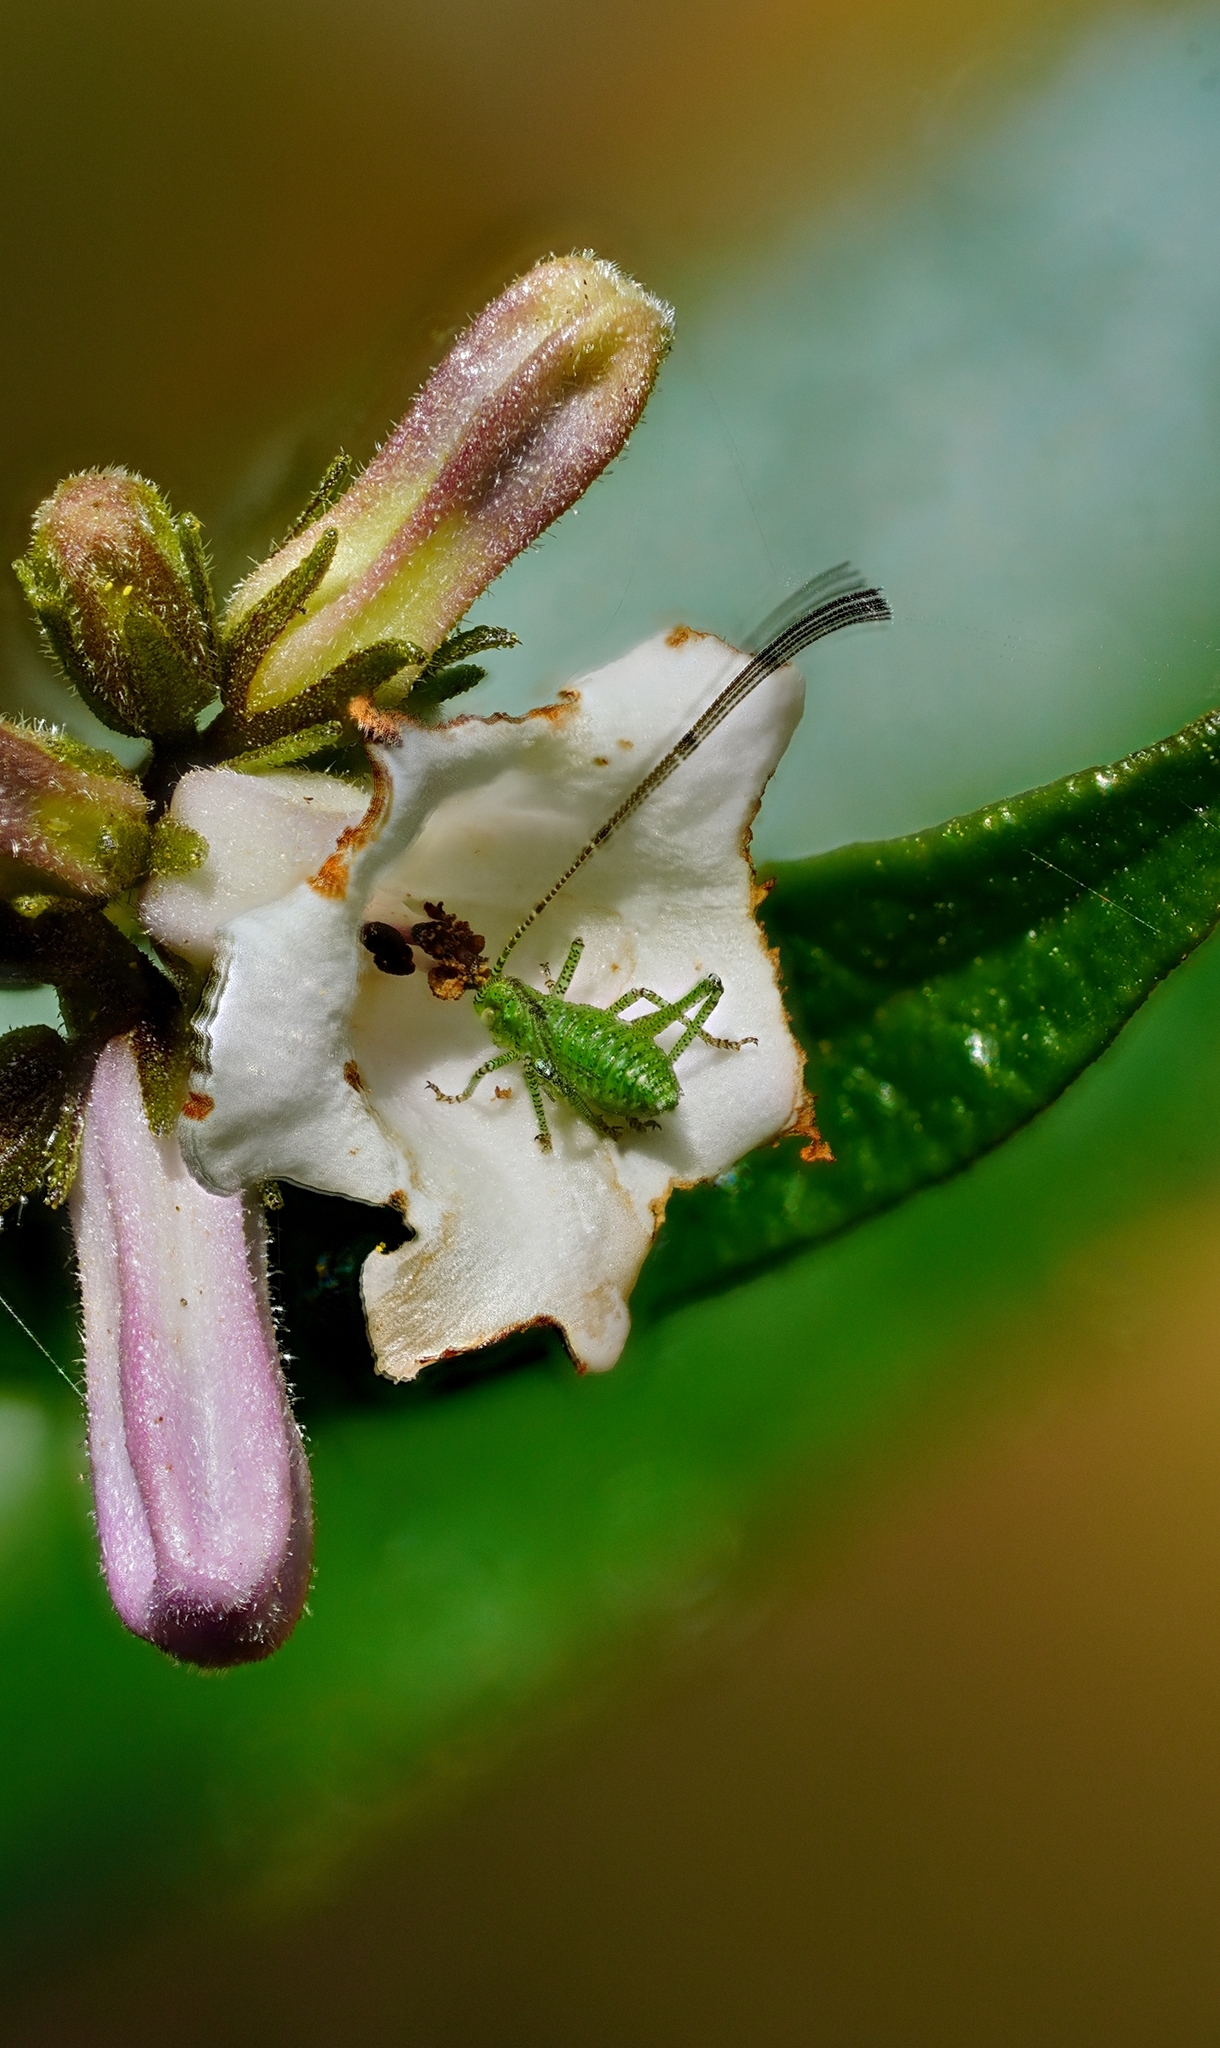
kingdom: Animalia
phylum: Arthropoda
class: Insecta
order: Orthoptera
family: Tettigoniidae
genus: Platylyra
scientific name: Platylyra californica
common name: Chaparral false katydid
